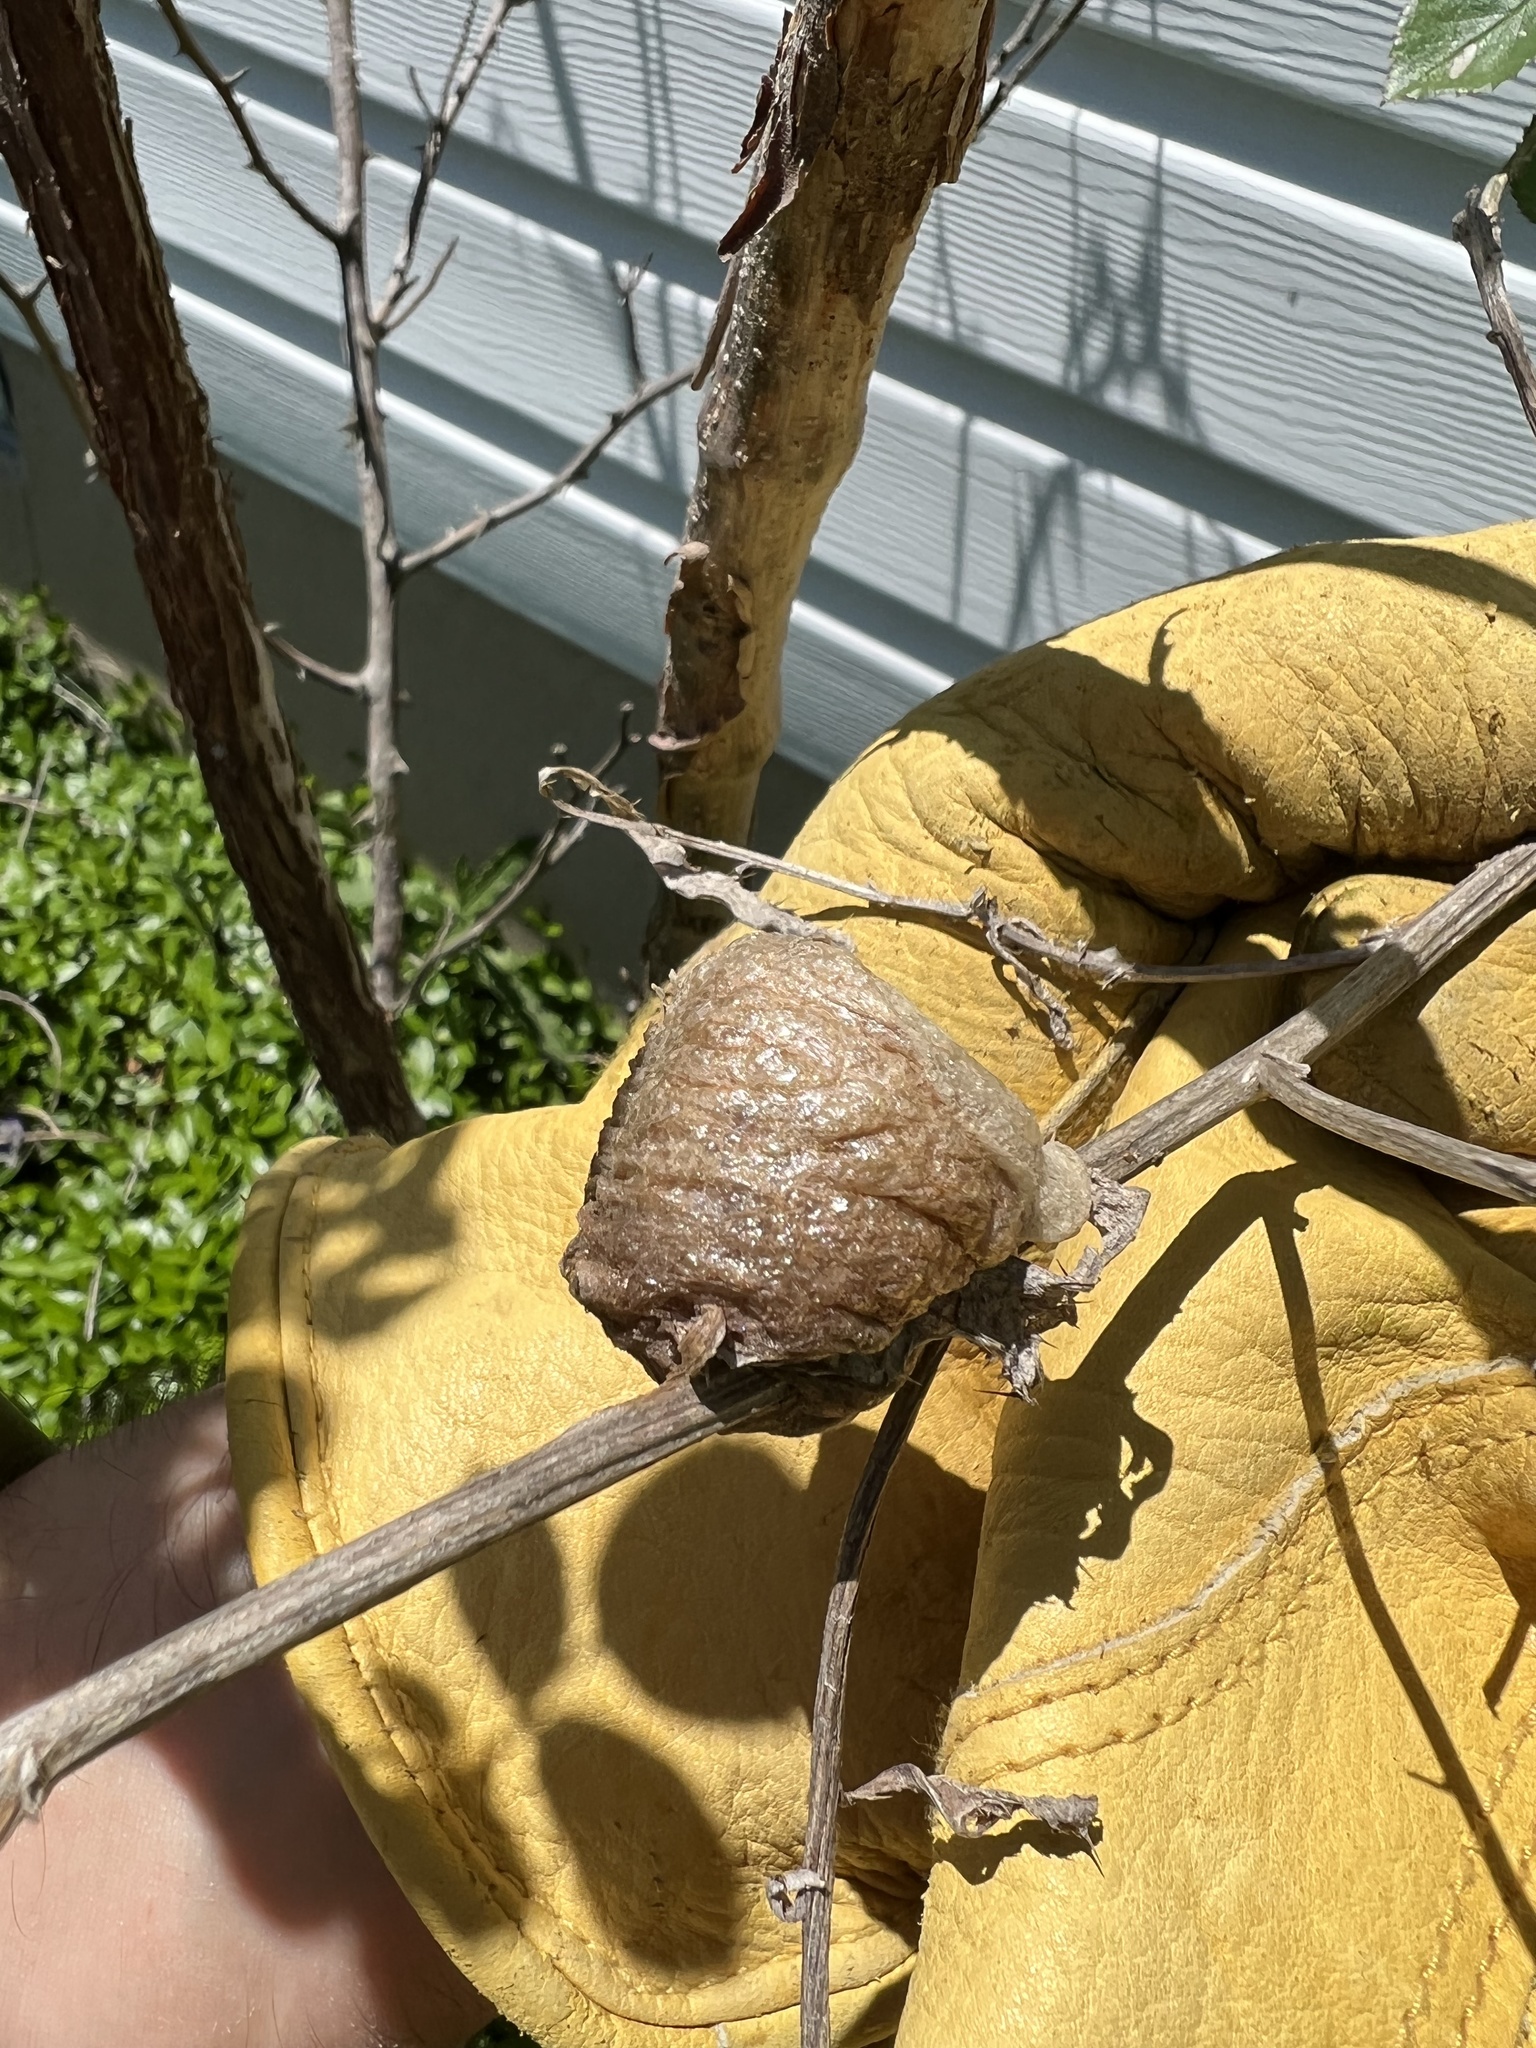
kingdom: Animalia
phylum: Arthropoda
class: Insecta
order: Mantodea
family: Mantidae
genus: Tenodera
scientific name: Tenodera sinensis
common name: Chinese mantis
